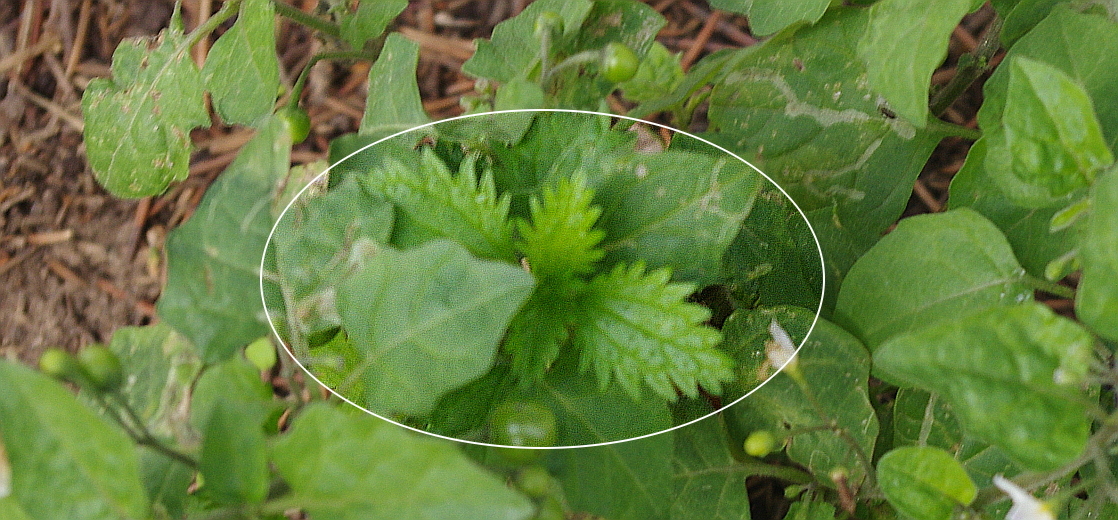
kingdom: Plantae
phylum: Tracheophyta
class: Magnoliopsida
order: Rosales
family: Urticaceae
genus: Urtica
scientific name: Urtica urens
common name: Dwarf nettle
